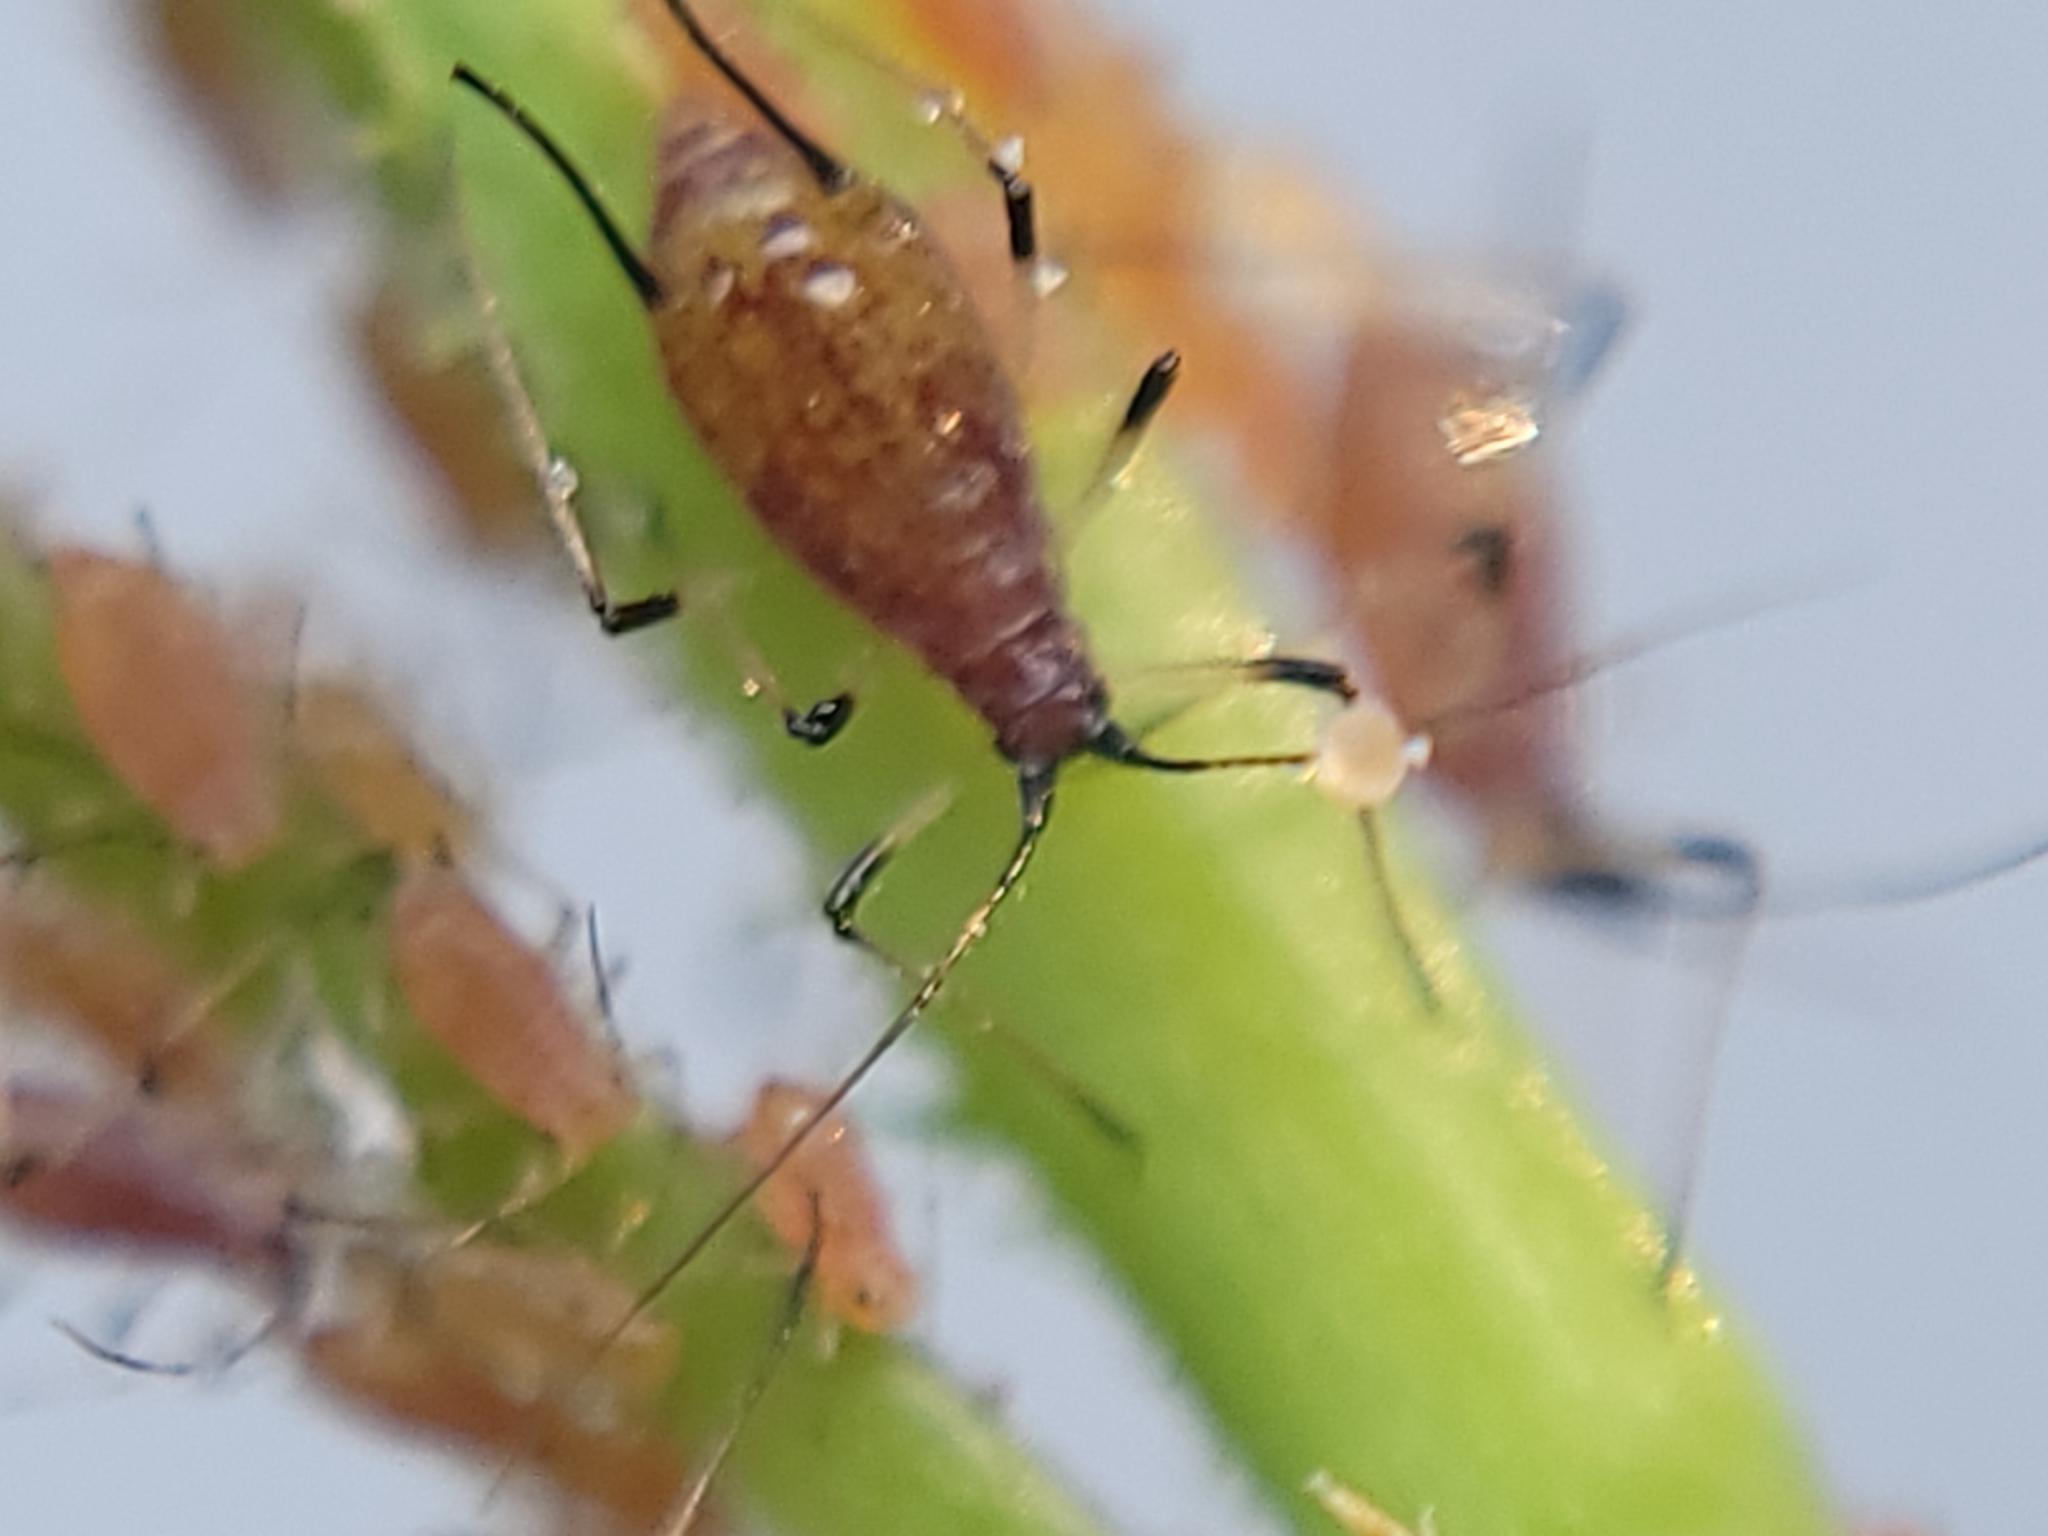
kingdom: Animalia
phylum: Arthropoda
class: Insecta
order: Hemiptera
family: Aphididae
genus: Macrosiphum
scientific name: Macrosiphum rosae
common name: Rose aphid
